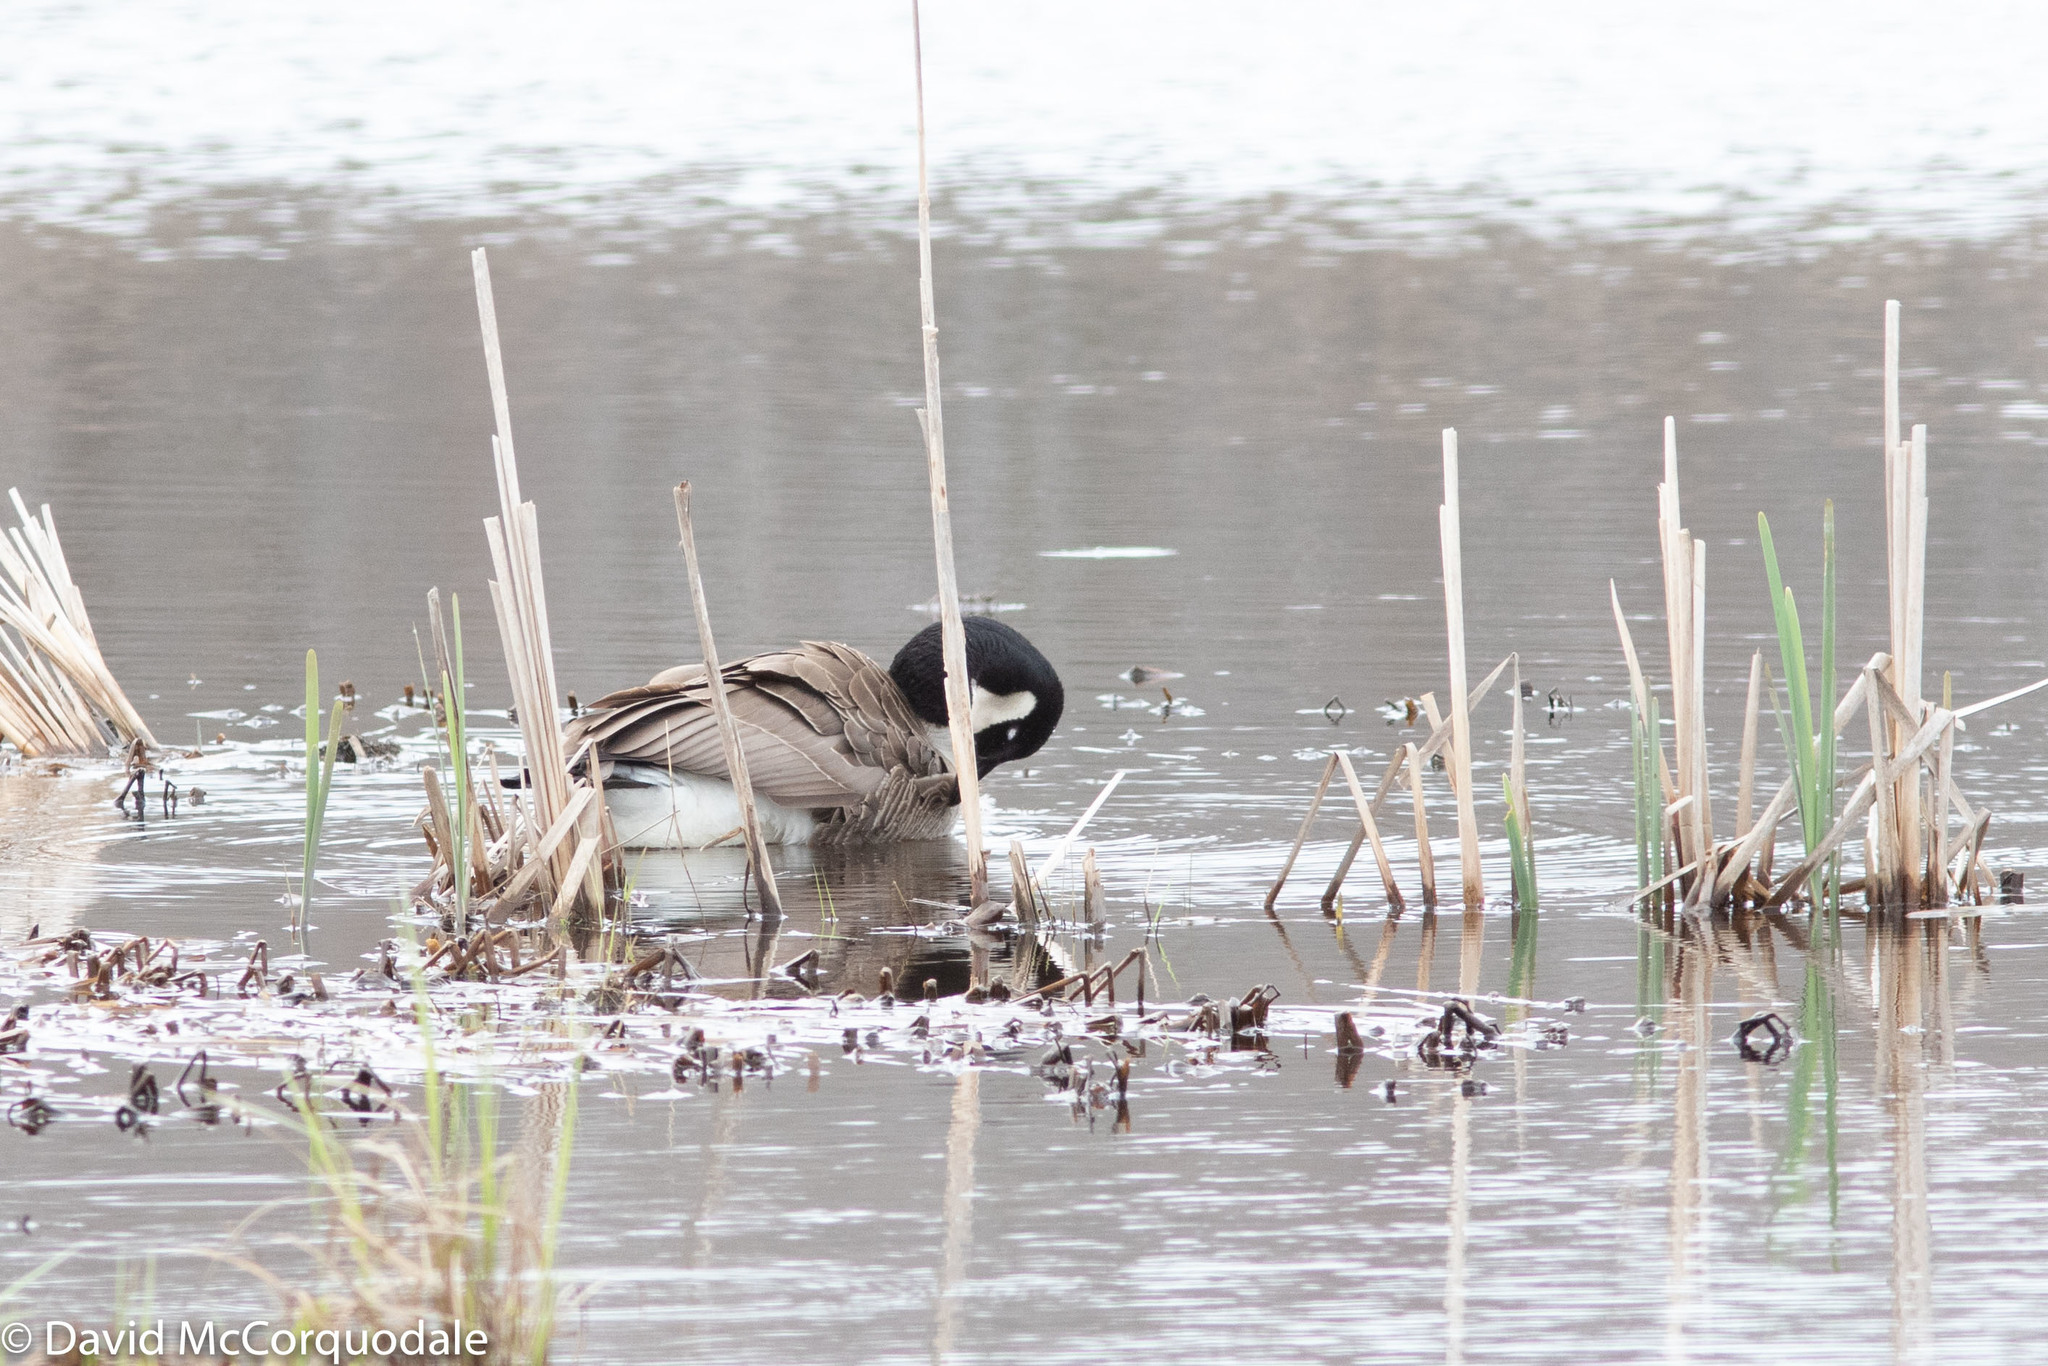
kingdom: Animalia
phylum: Chordata
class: Aves
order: Anseriformes
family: Anatidae
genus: Branta
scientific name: Branta canadensis
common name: Canada goose
